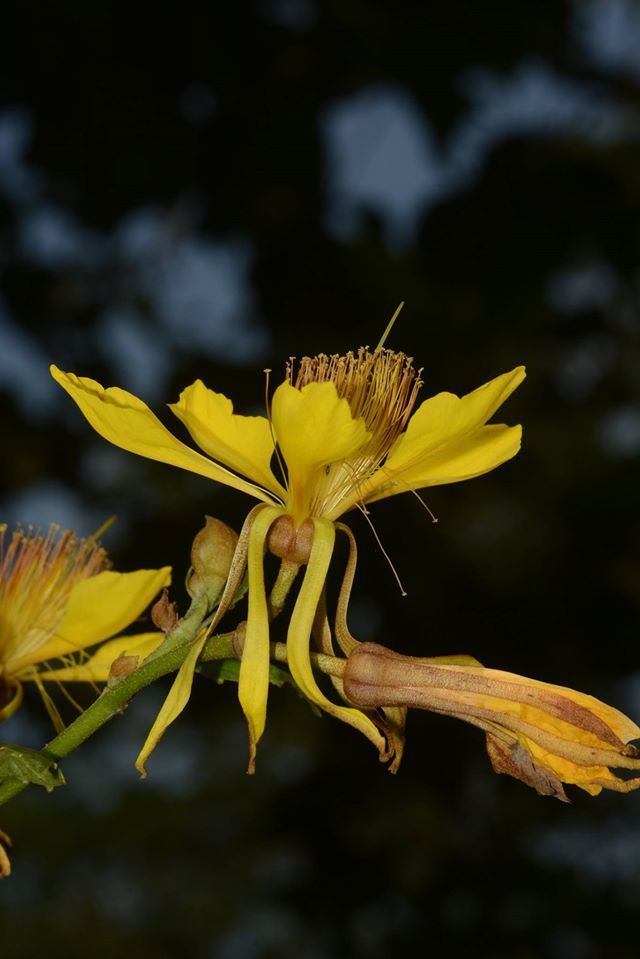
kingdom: Plantae
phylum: Tracheophyta
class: Magnoliopsida
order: Malvales
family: Malvaceae
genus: Erinocarpus
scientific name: Erinocarpus nimmonii
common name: Nimmo's erinocarpus
